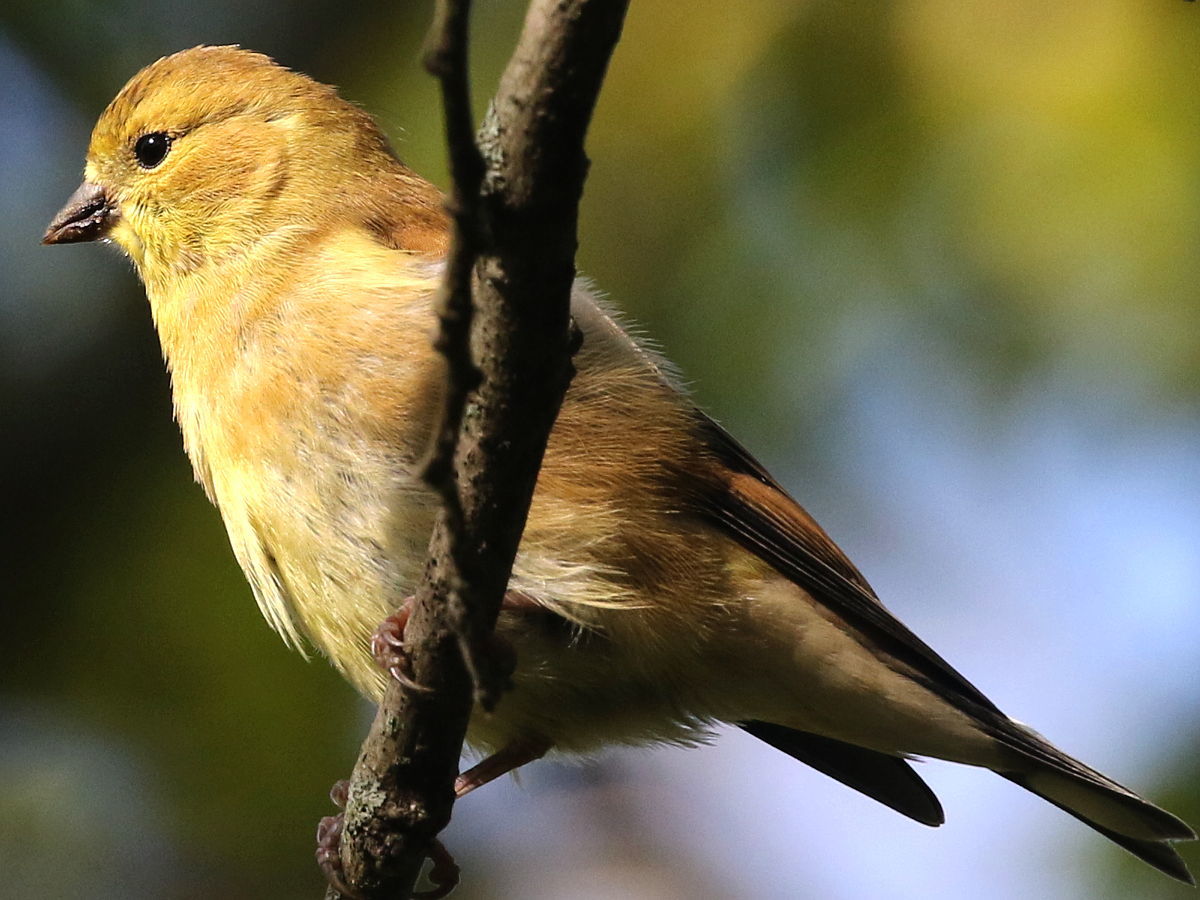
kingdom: Animalia
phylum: Chordata
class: Aves
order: Passeriformes
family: Fringillidae
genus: Spinus
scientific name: Spinus tristis
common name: American goldfinch
